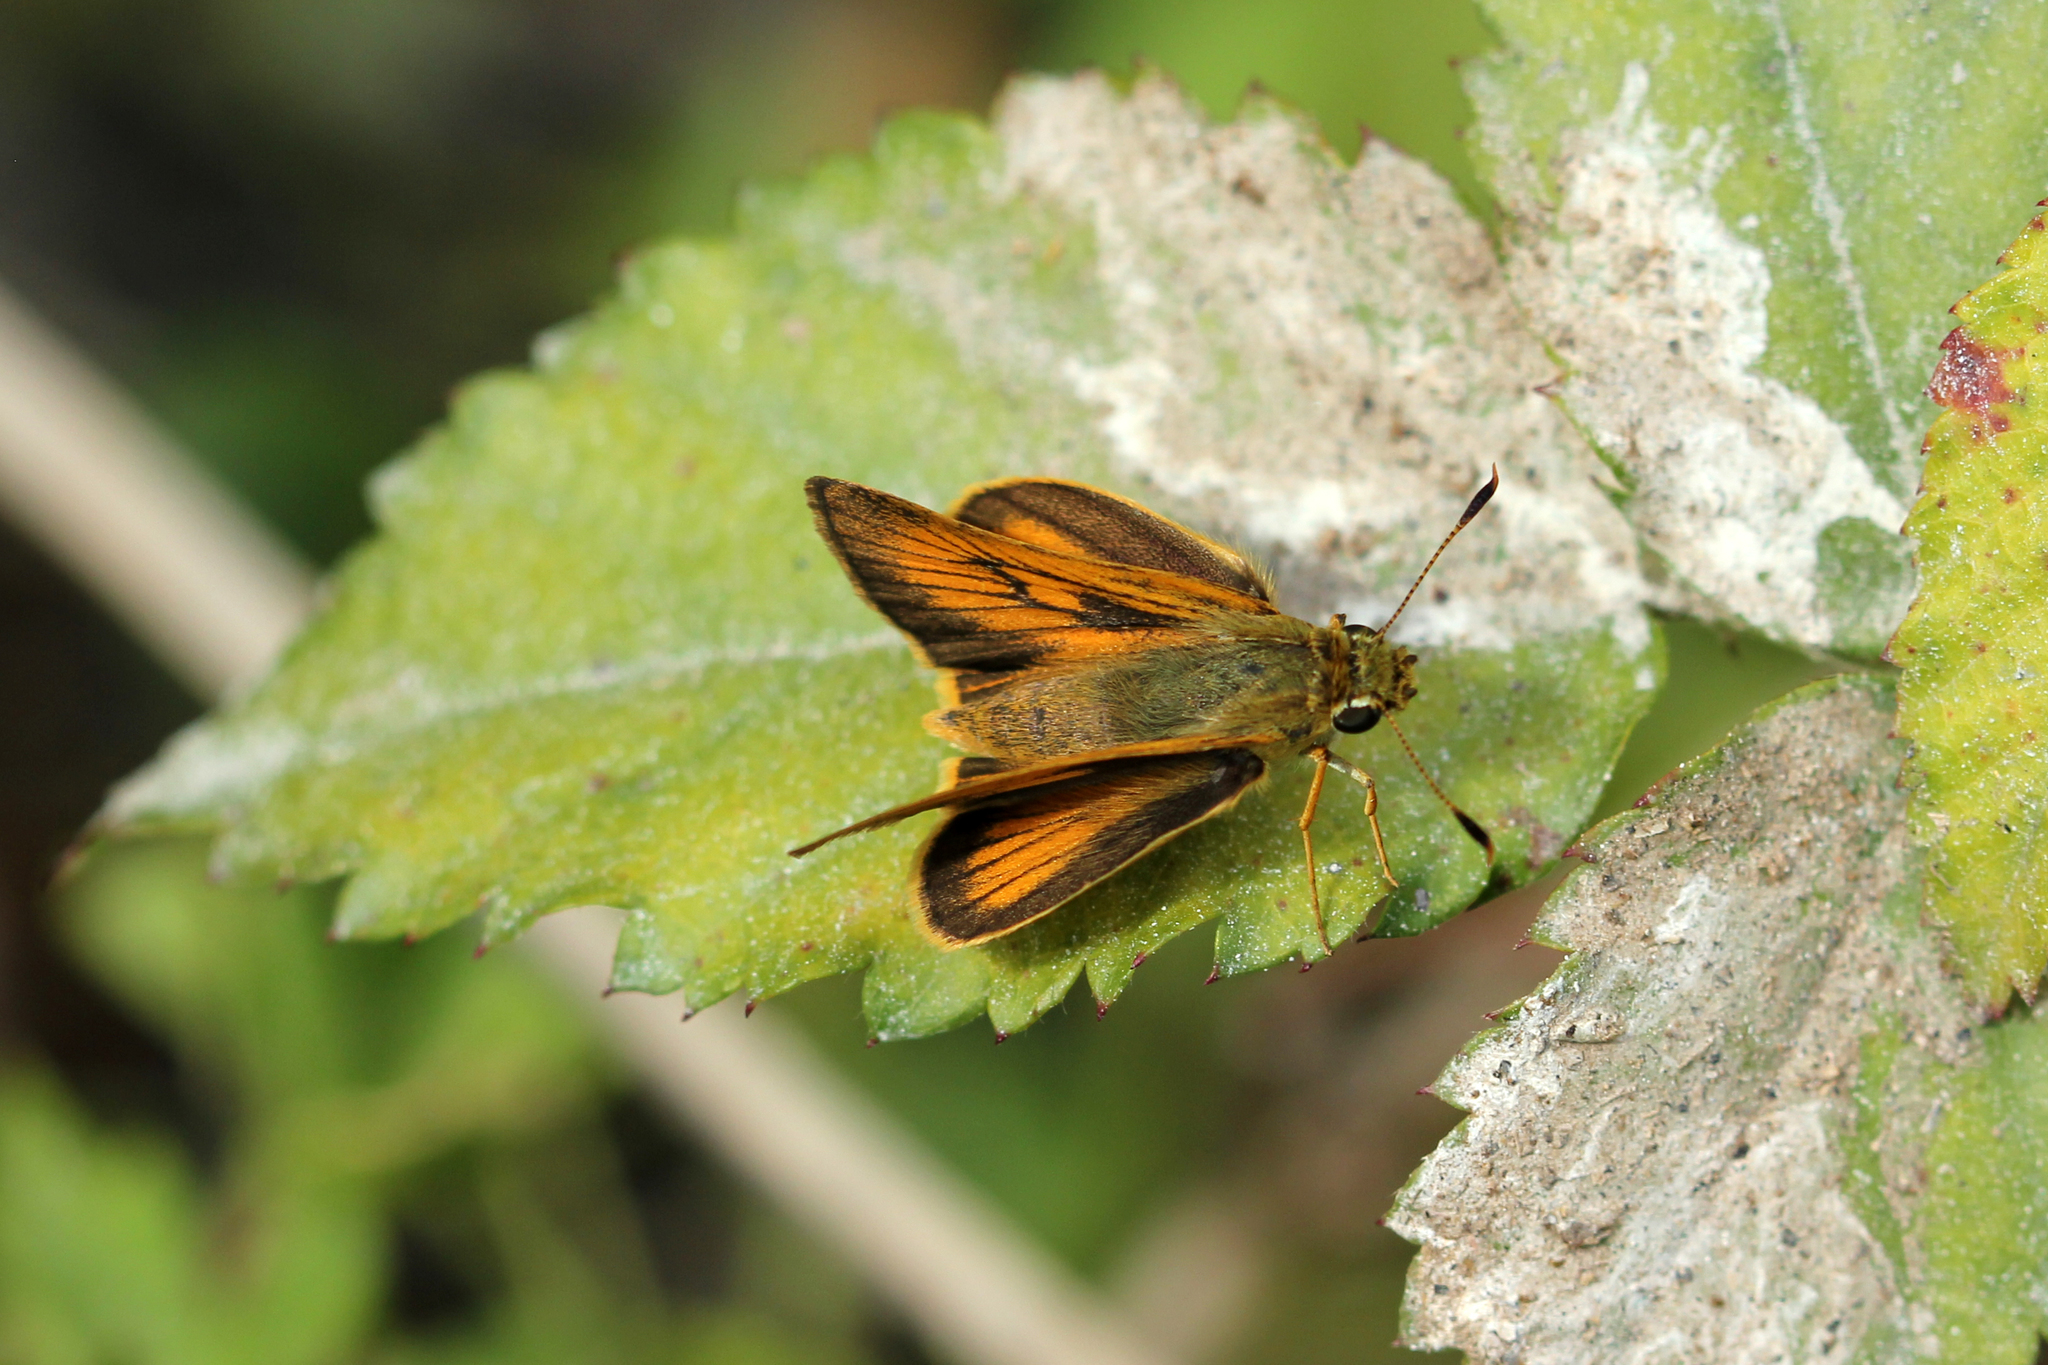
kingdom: Animalia
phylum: Arthropoda
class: Insecta
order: Lepidoptera
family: Hesperiidae
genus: Atrytone
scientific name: Atrytone delaware
